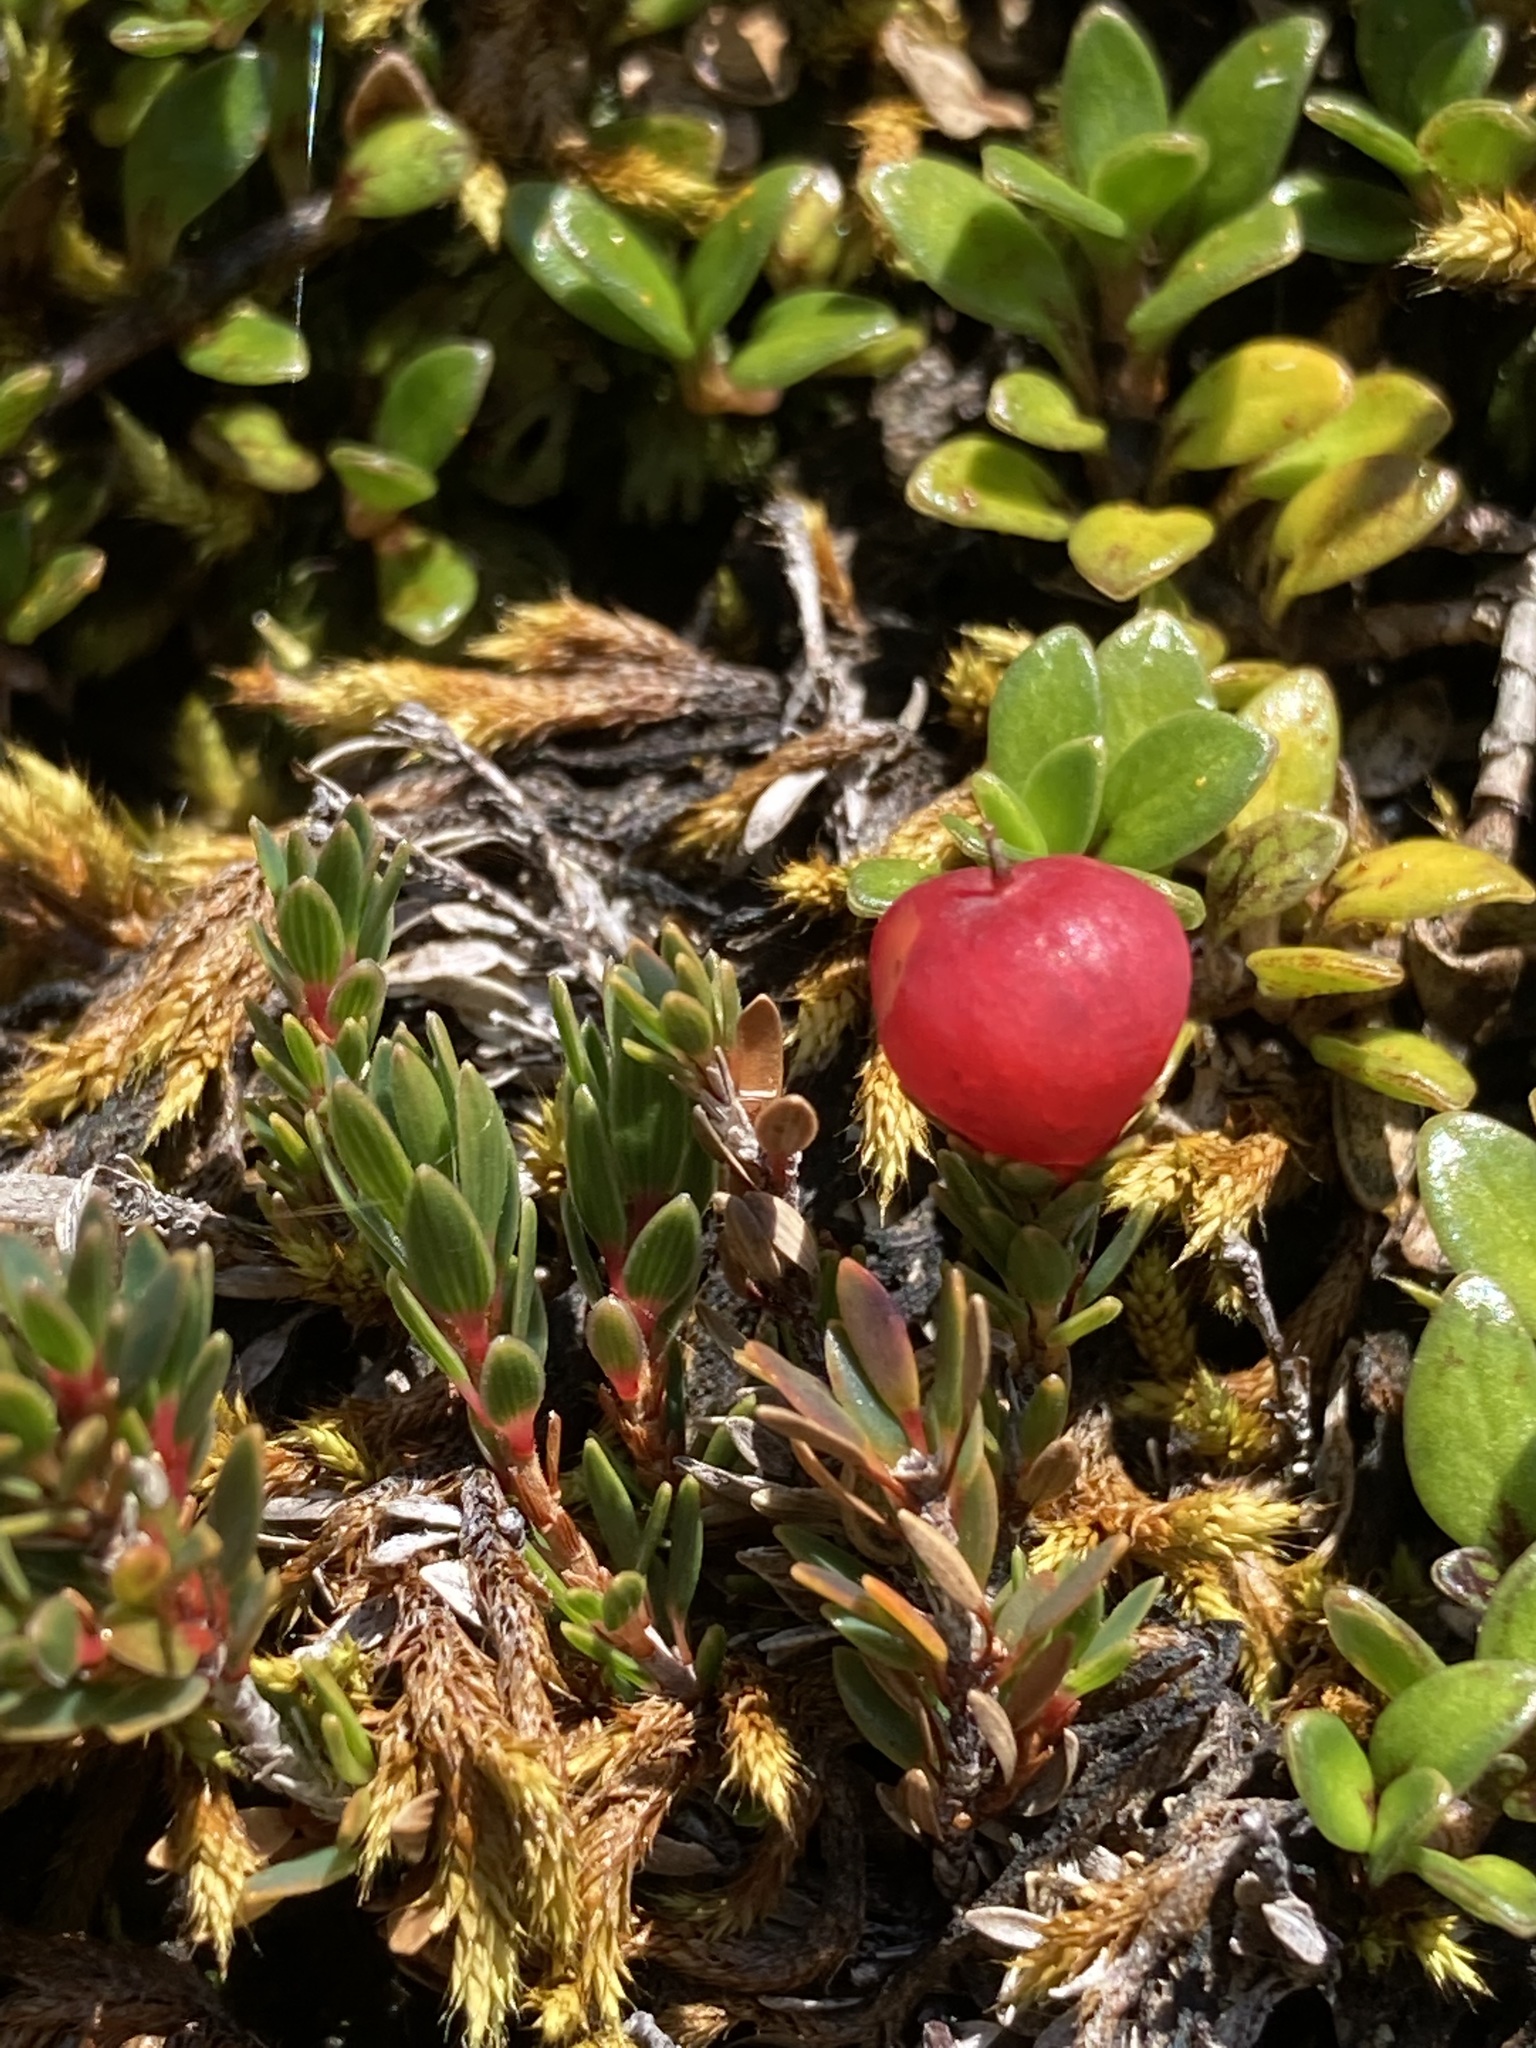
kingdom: Plantae
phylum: Tracheophyta
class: Magnoliopsida
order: Ericales
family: Ericaceae
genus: Pentachondra
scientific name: Pentachondra pumila
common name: Carpet-heath
